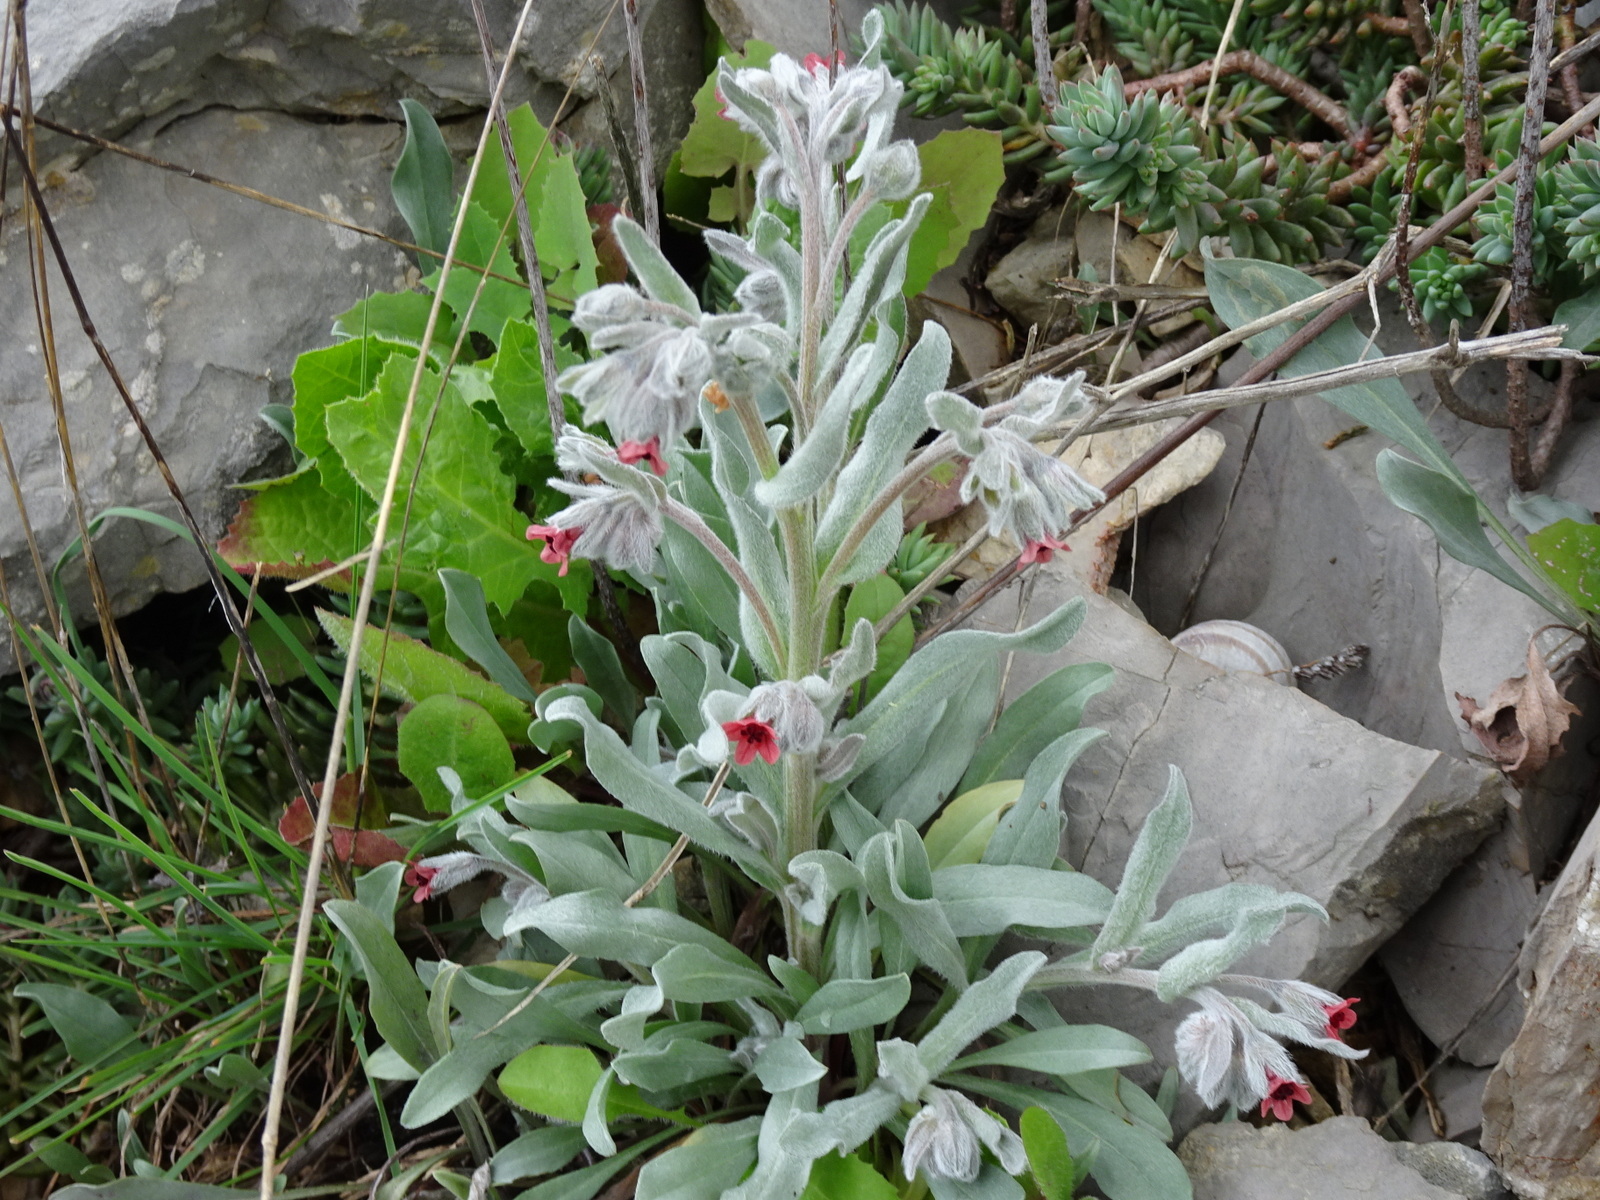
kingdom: Plantae
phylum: Tracheophyta
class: Magnoliopsida
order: Boraginales
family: Boraginaceae
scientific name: Boraginaceae
